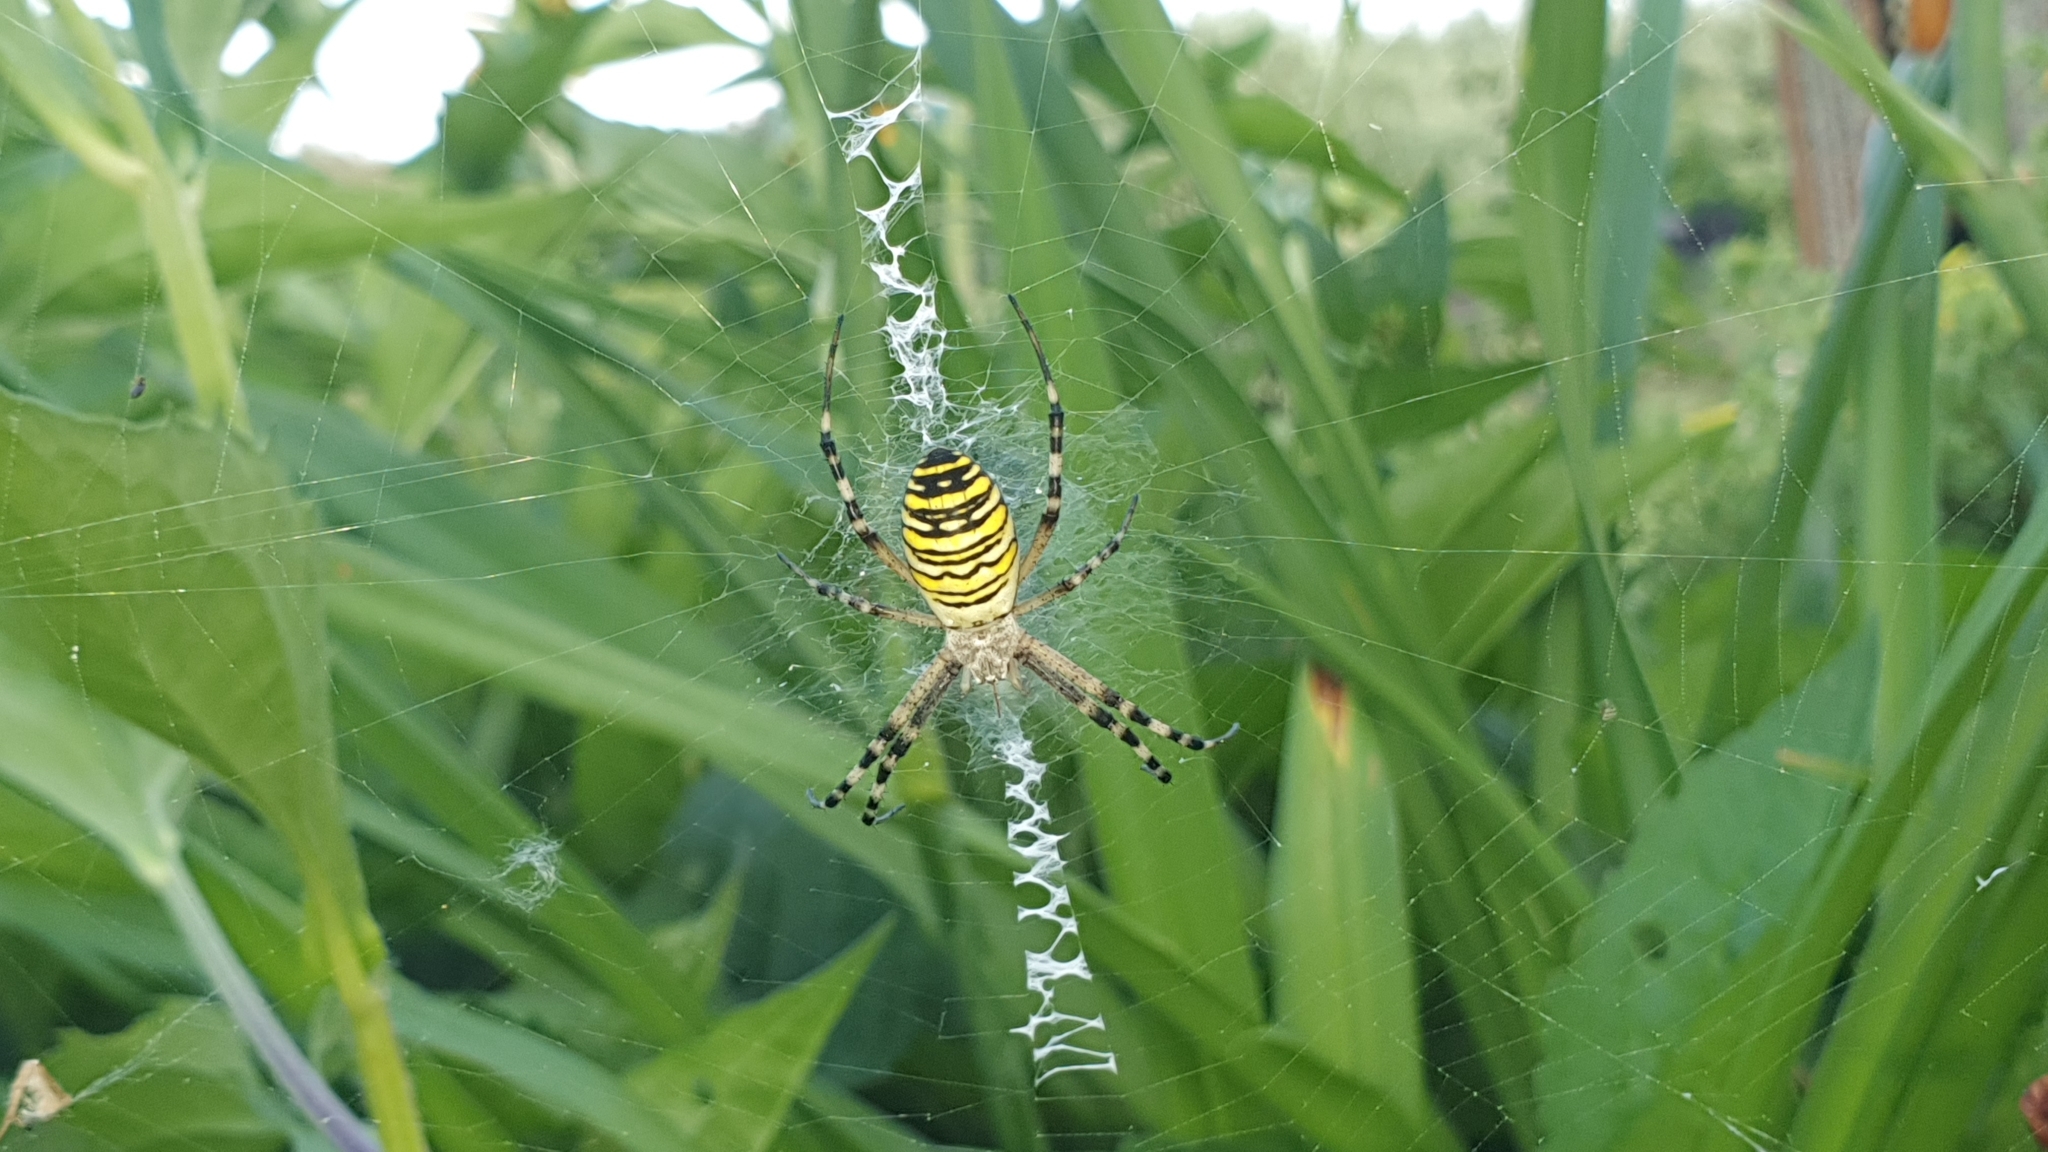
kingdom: Animalia
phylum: Arthropoda
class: Arachnida
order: Araneae
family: Araneidae
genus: Argiope
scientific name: Argiope bruennichi
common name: Wasp spider
